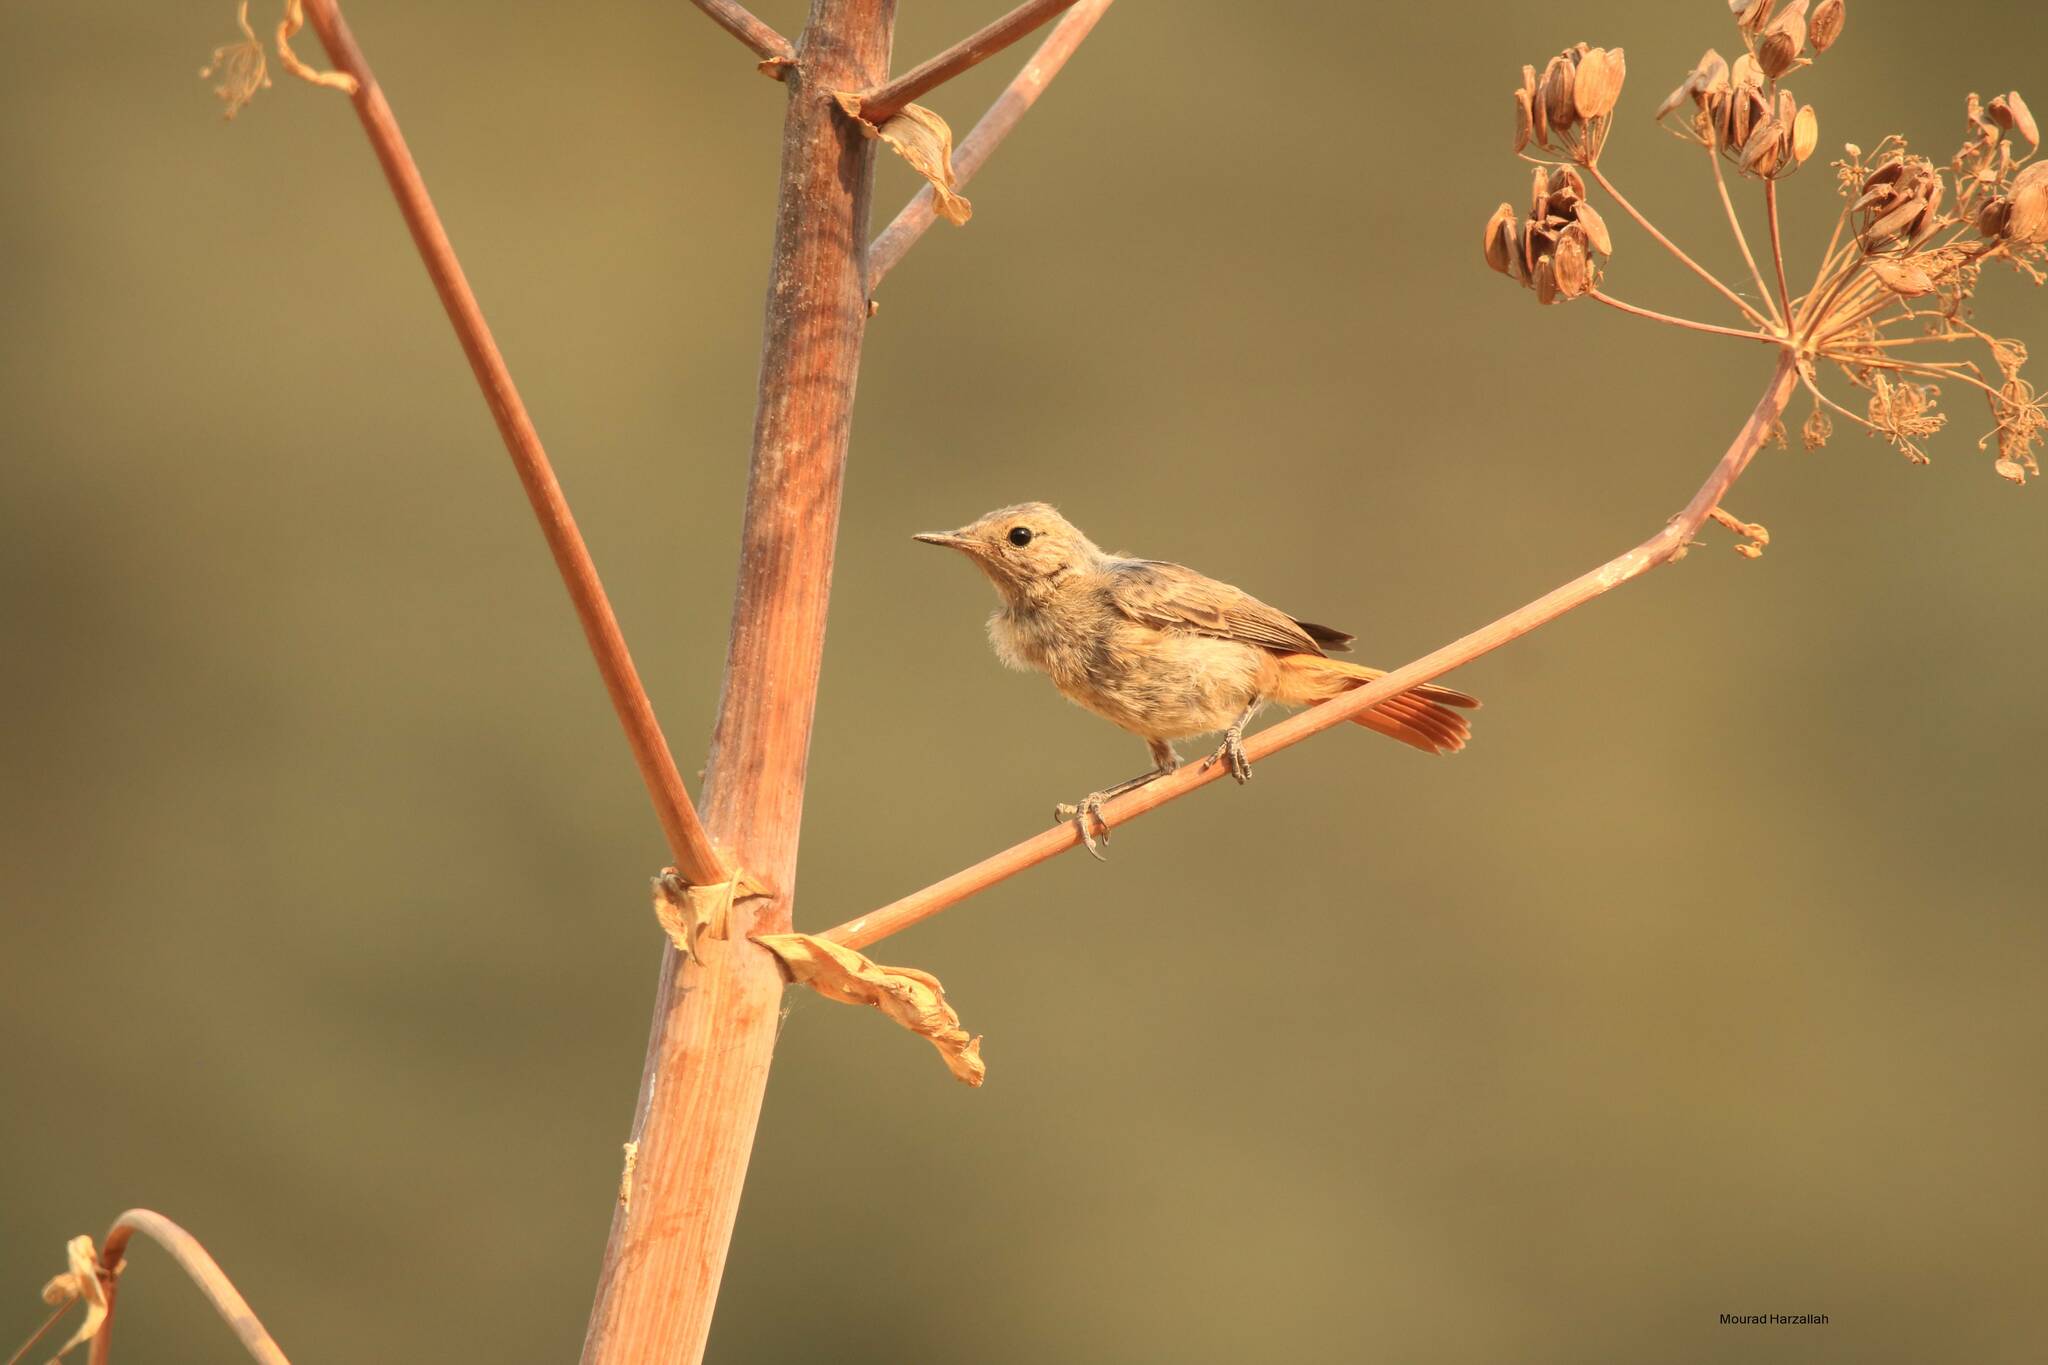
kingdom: Animalia
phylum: Chordata
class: Aves
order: Passeriformes
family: Muscicapidae
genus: Phoenicurus
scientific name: Phoenicurus moussieri
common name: Moussier's redstart
